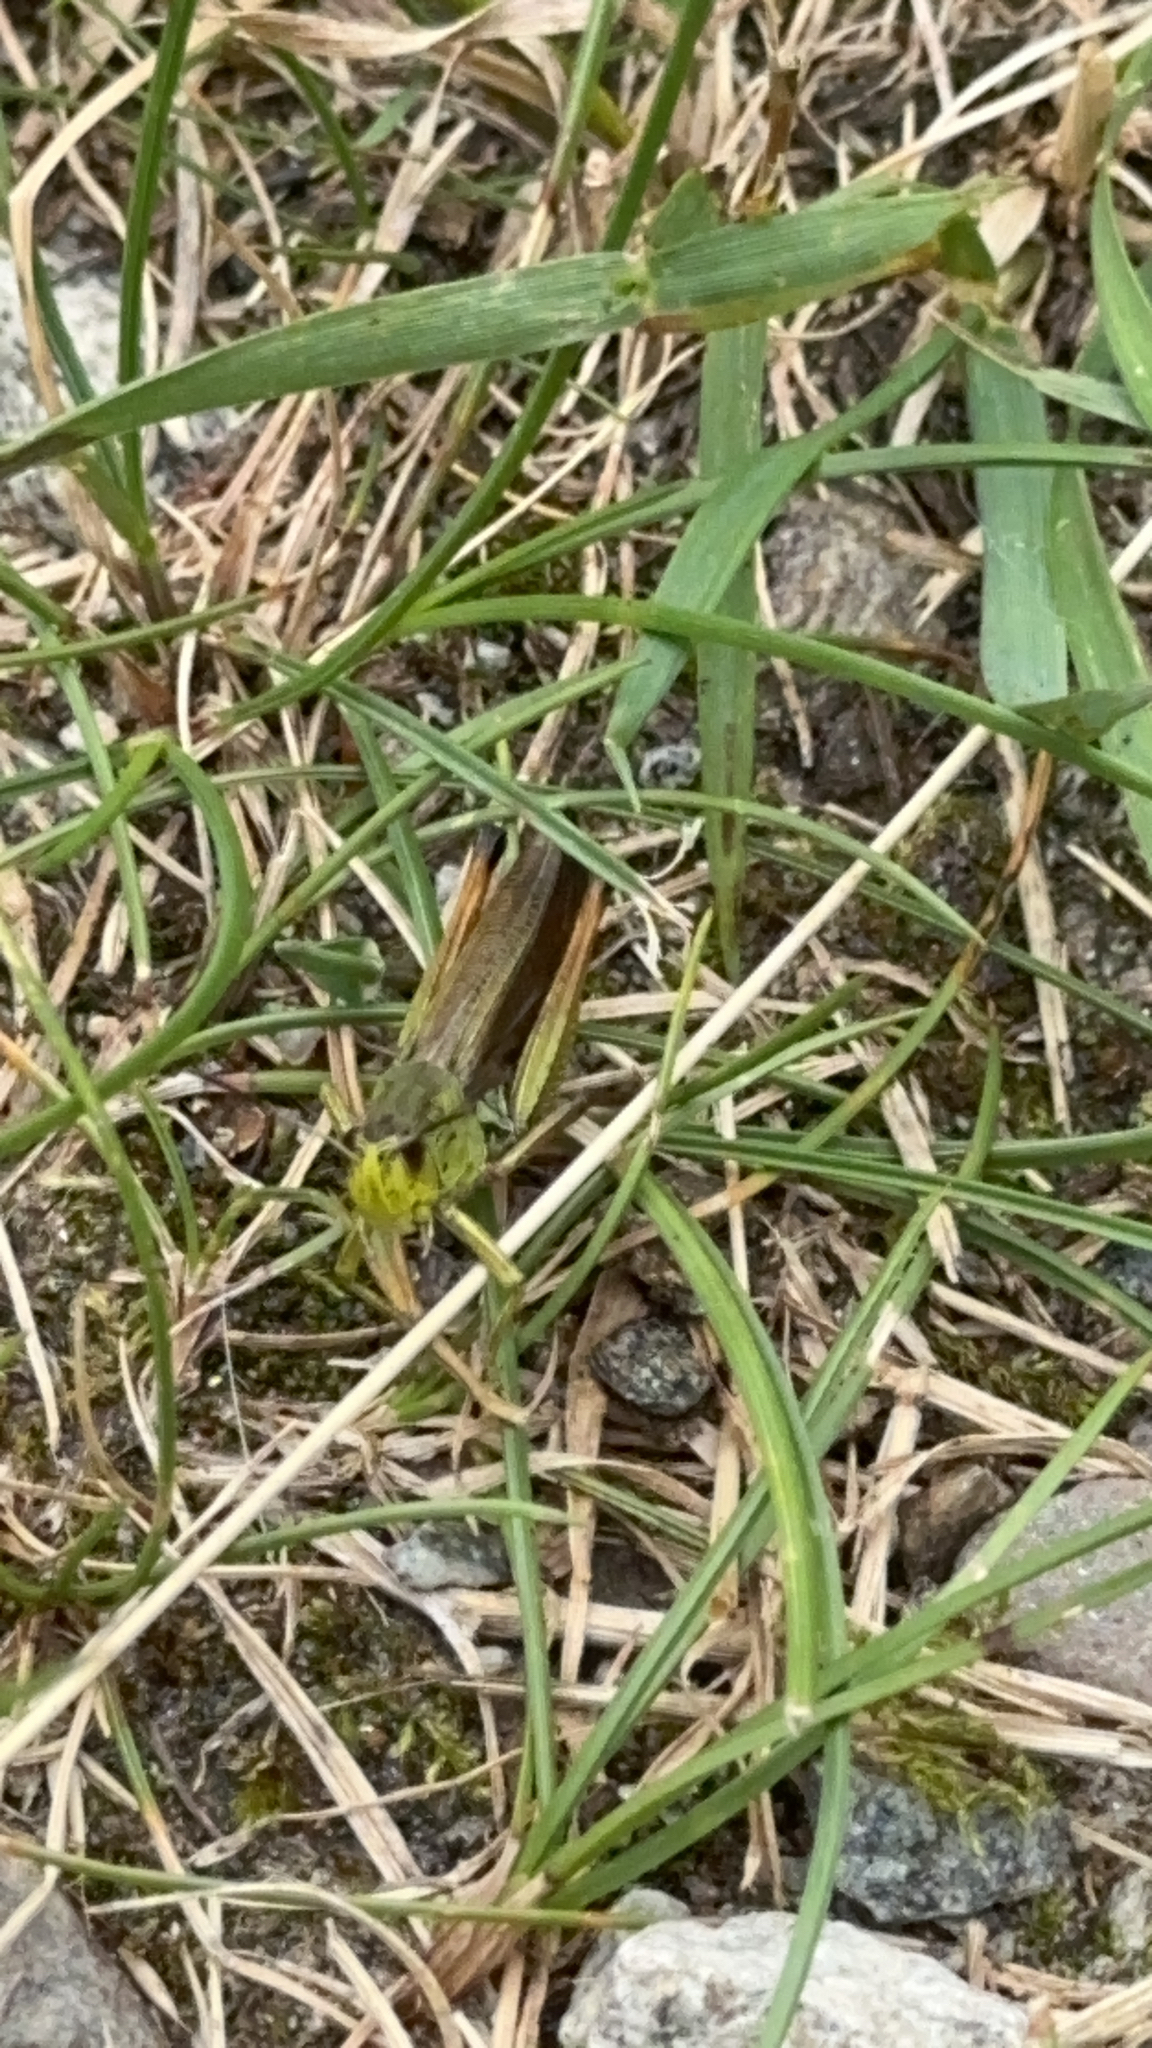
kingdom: Animalia
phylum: Arthropoda
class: Insecta
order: Orthoptera
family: Acrididae
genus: Stauroderus
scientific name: Stauroderus scalaris
